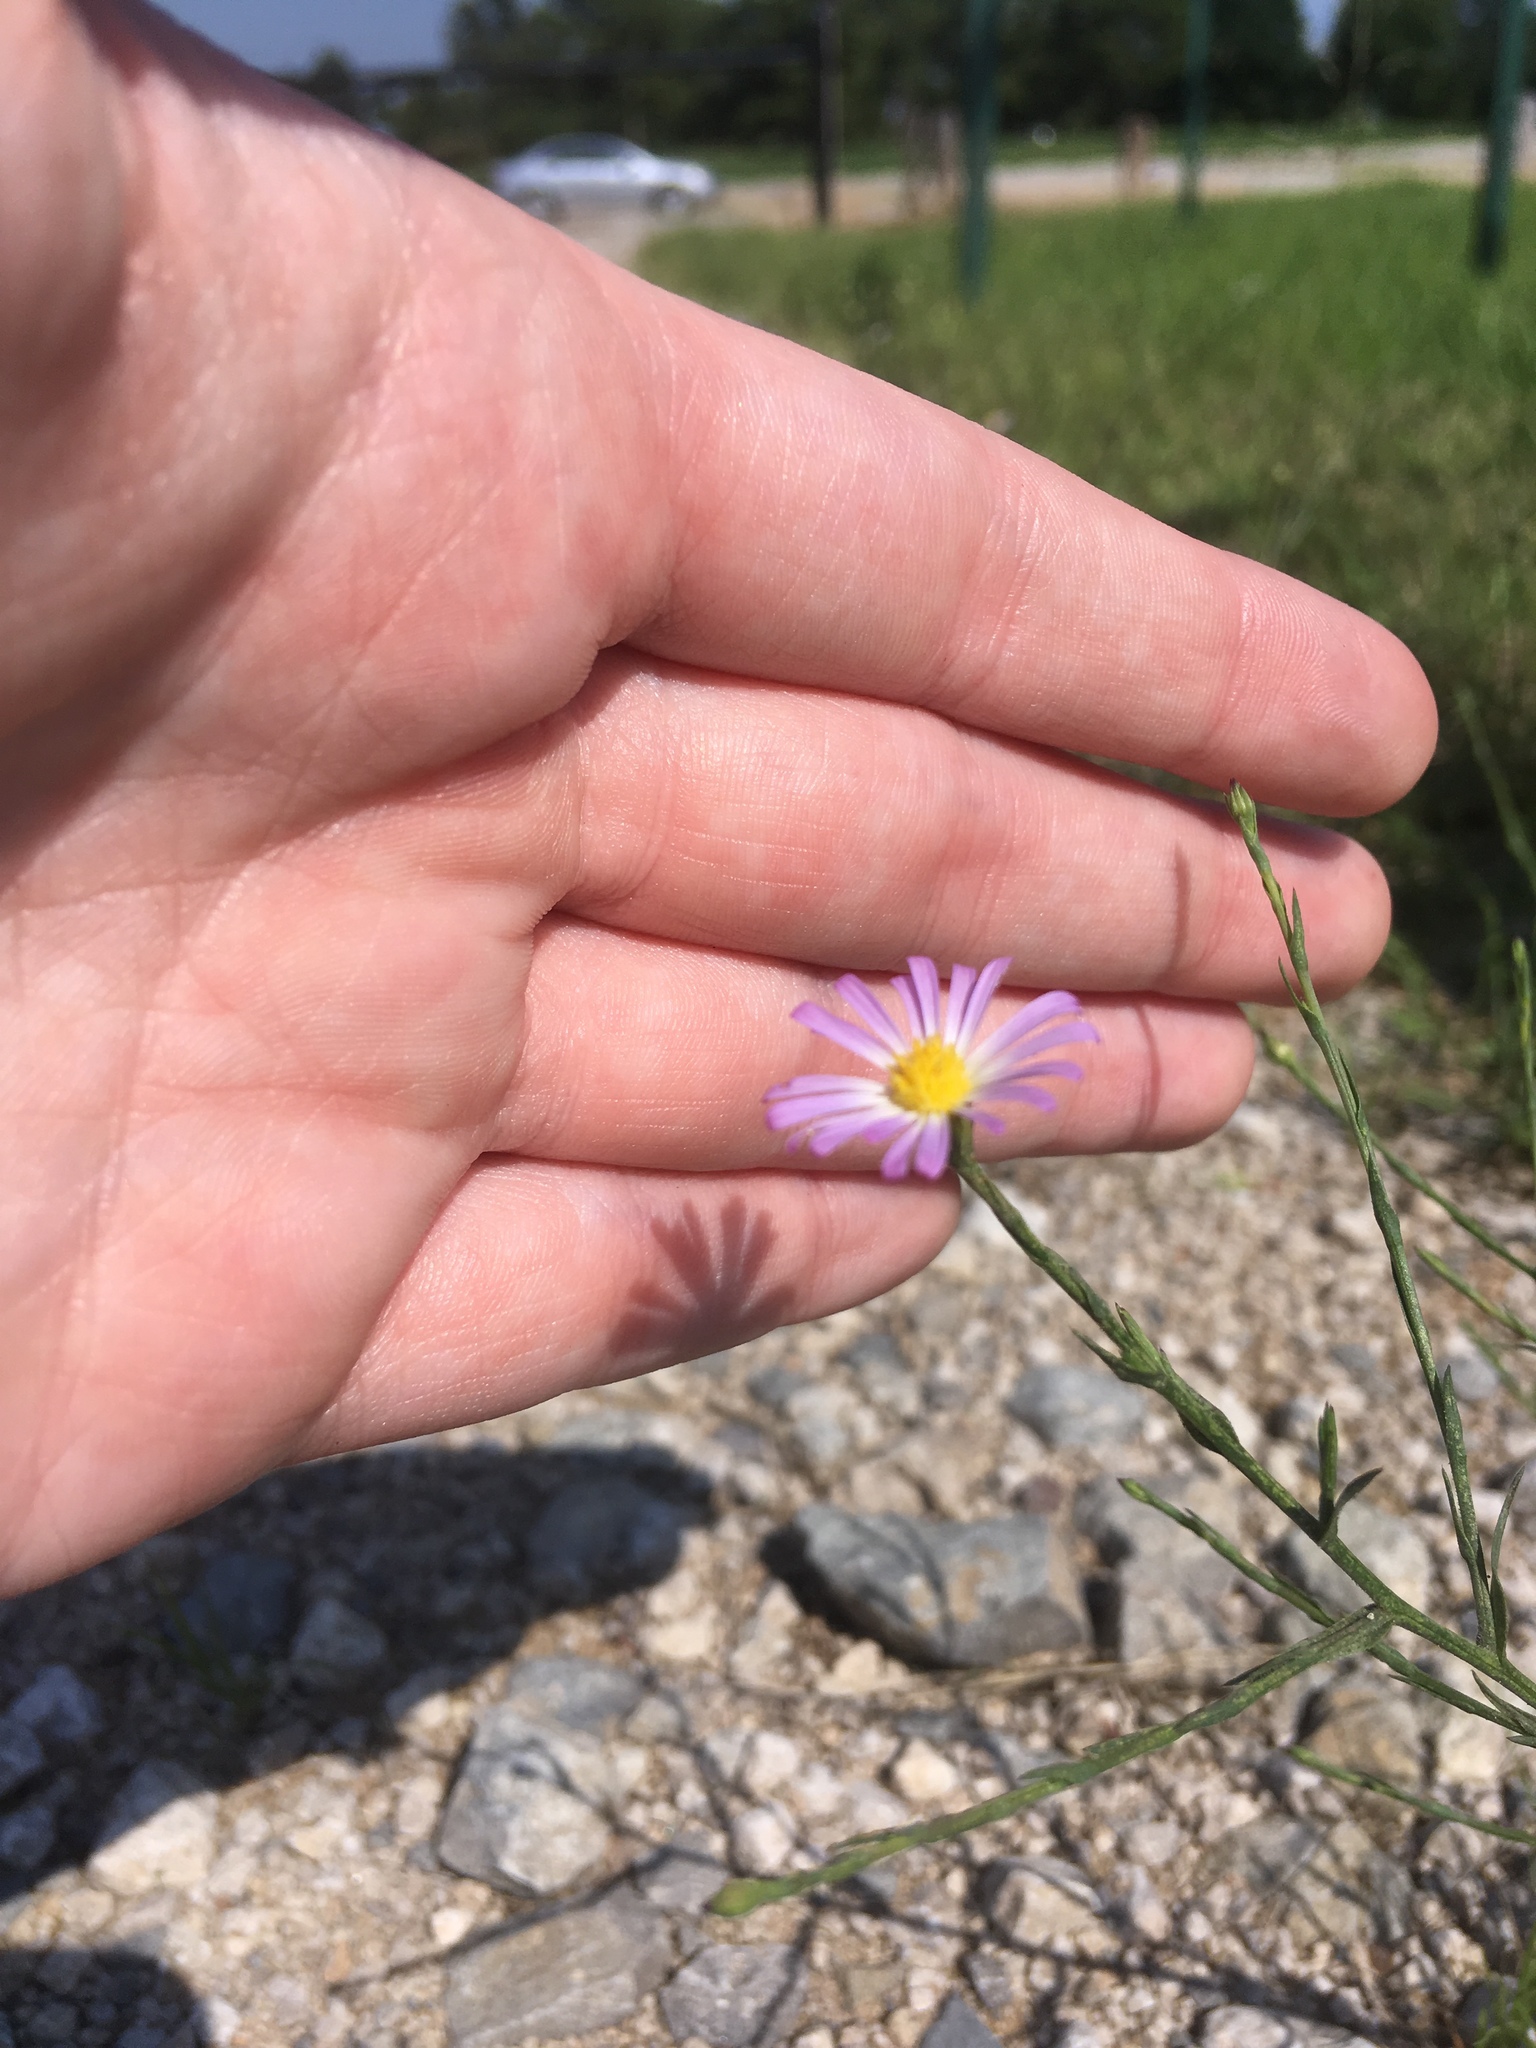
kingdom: Plantae
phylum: Tracheophyta
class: Magnoliopsida
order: Asterales
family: Asteraceae
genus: Symphyotrichum
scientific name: Symphyotrichum subulatum
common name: Annual saltmarsh aster
